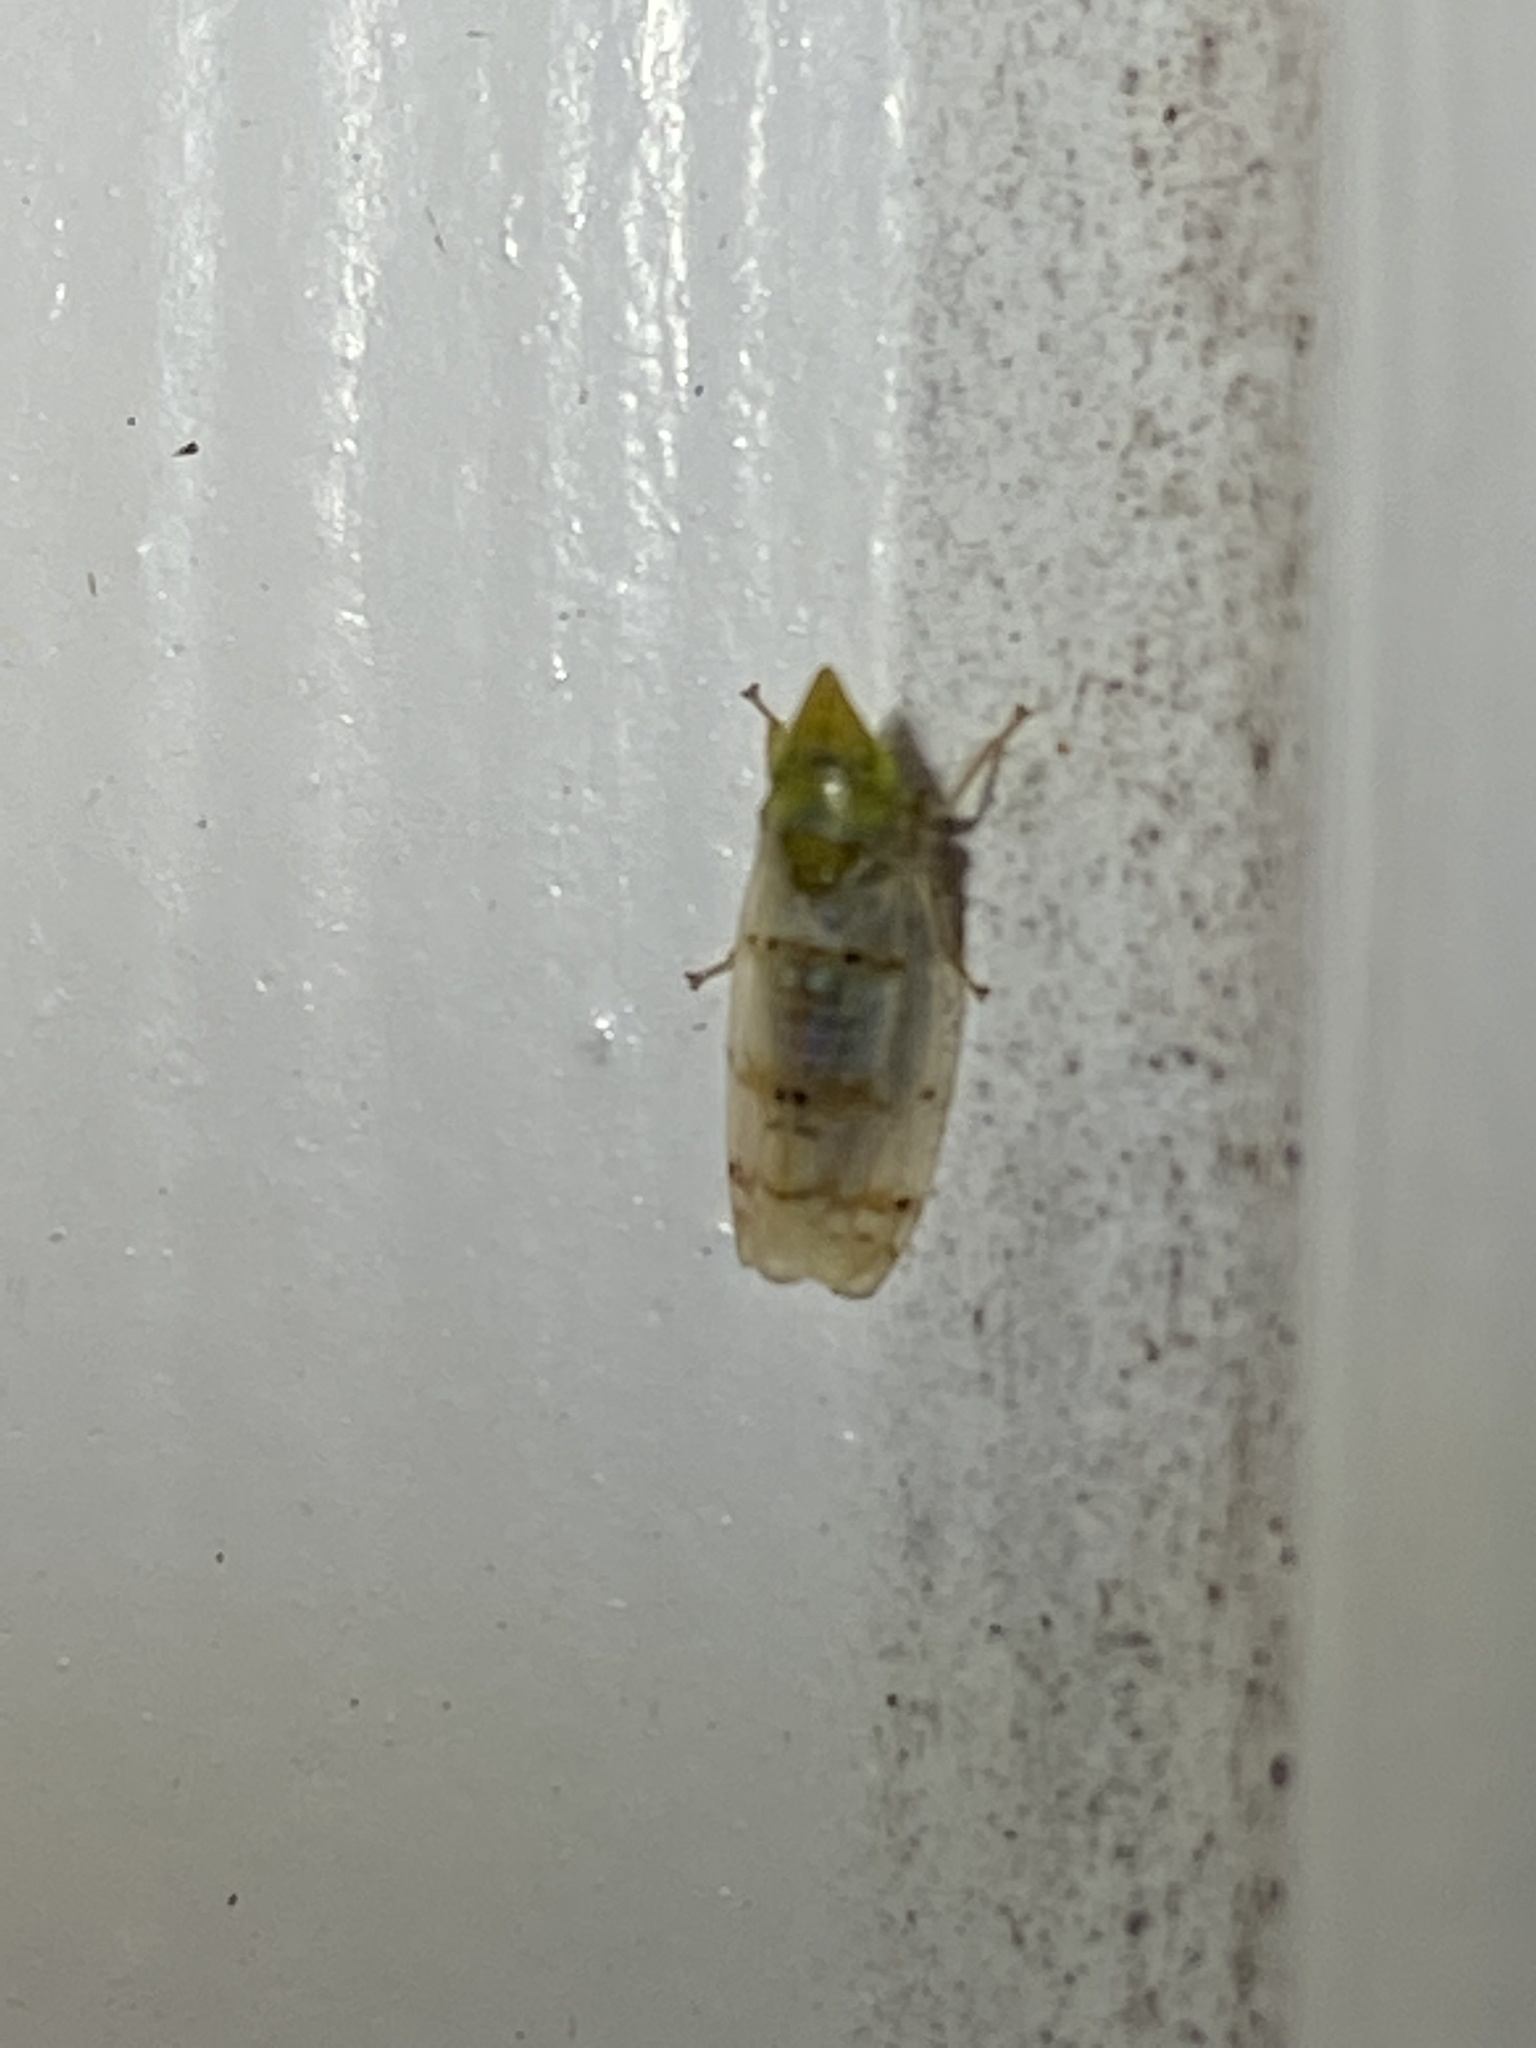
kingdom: Animalia
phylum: Arthropoda
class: Insecta
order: Hemiptera
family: Cicadellidae
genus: Japananus
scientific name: Japananus hyalinus
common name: The japanese maple leafhopper
